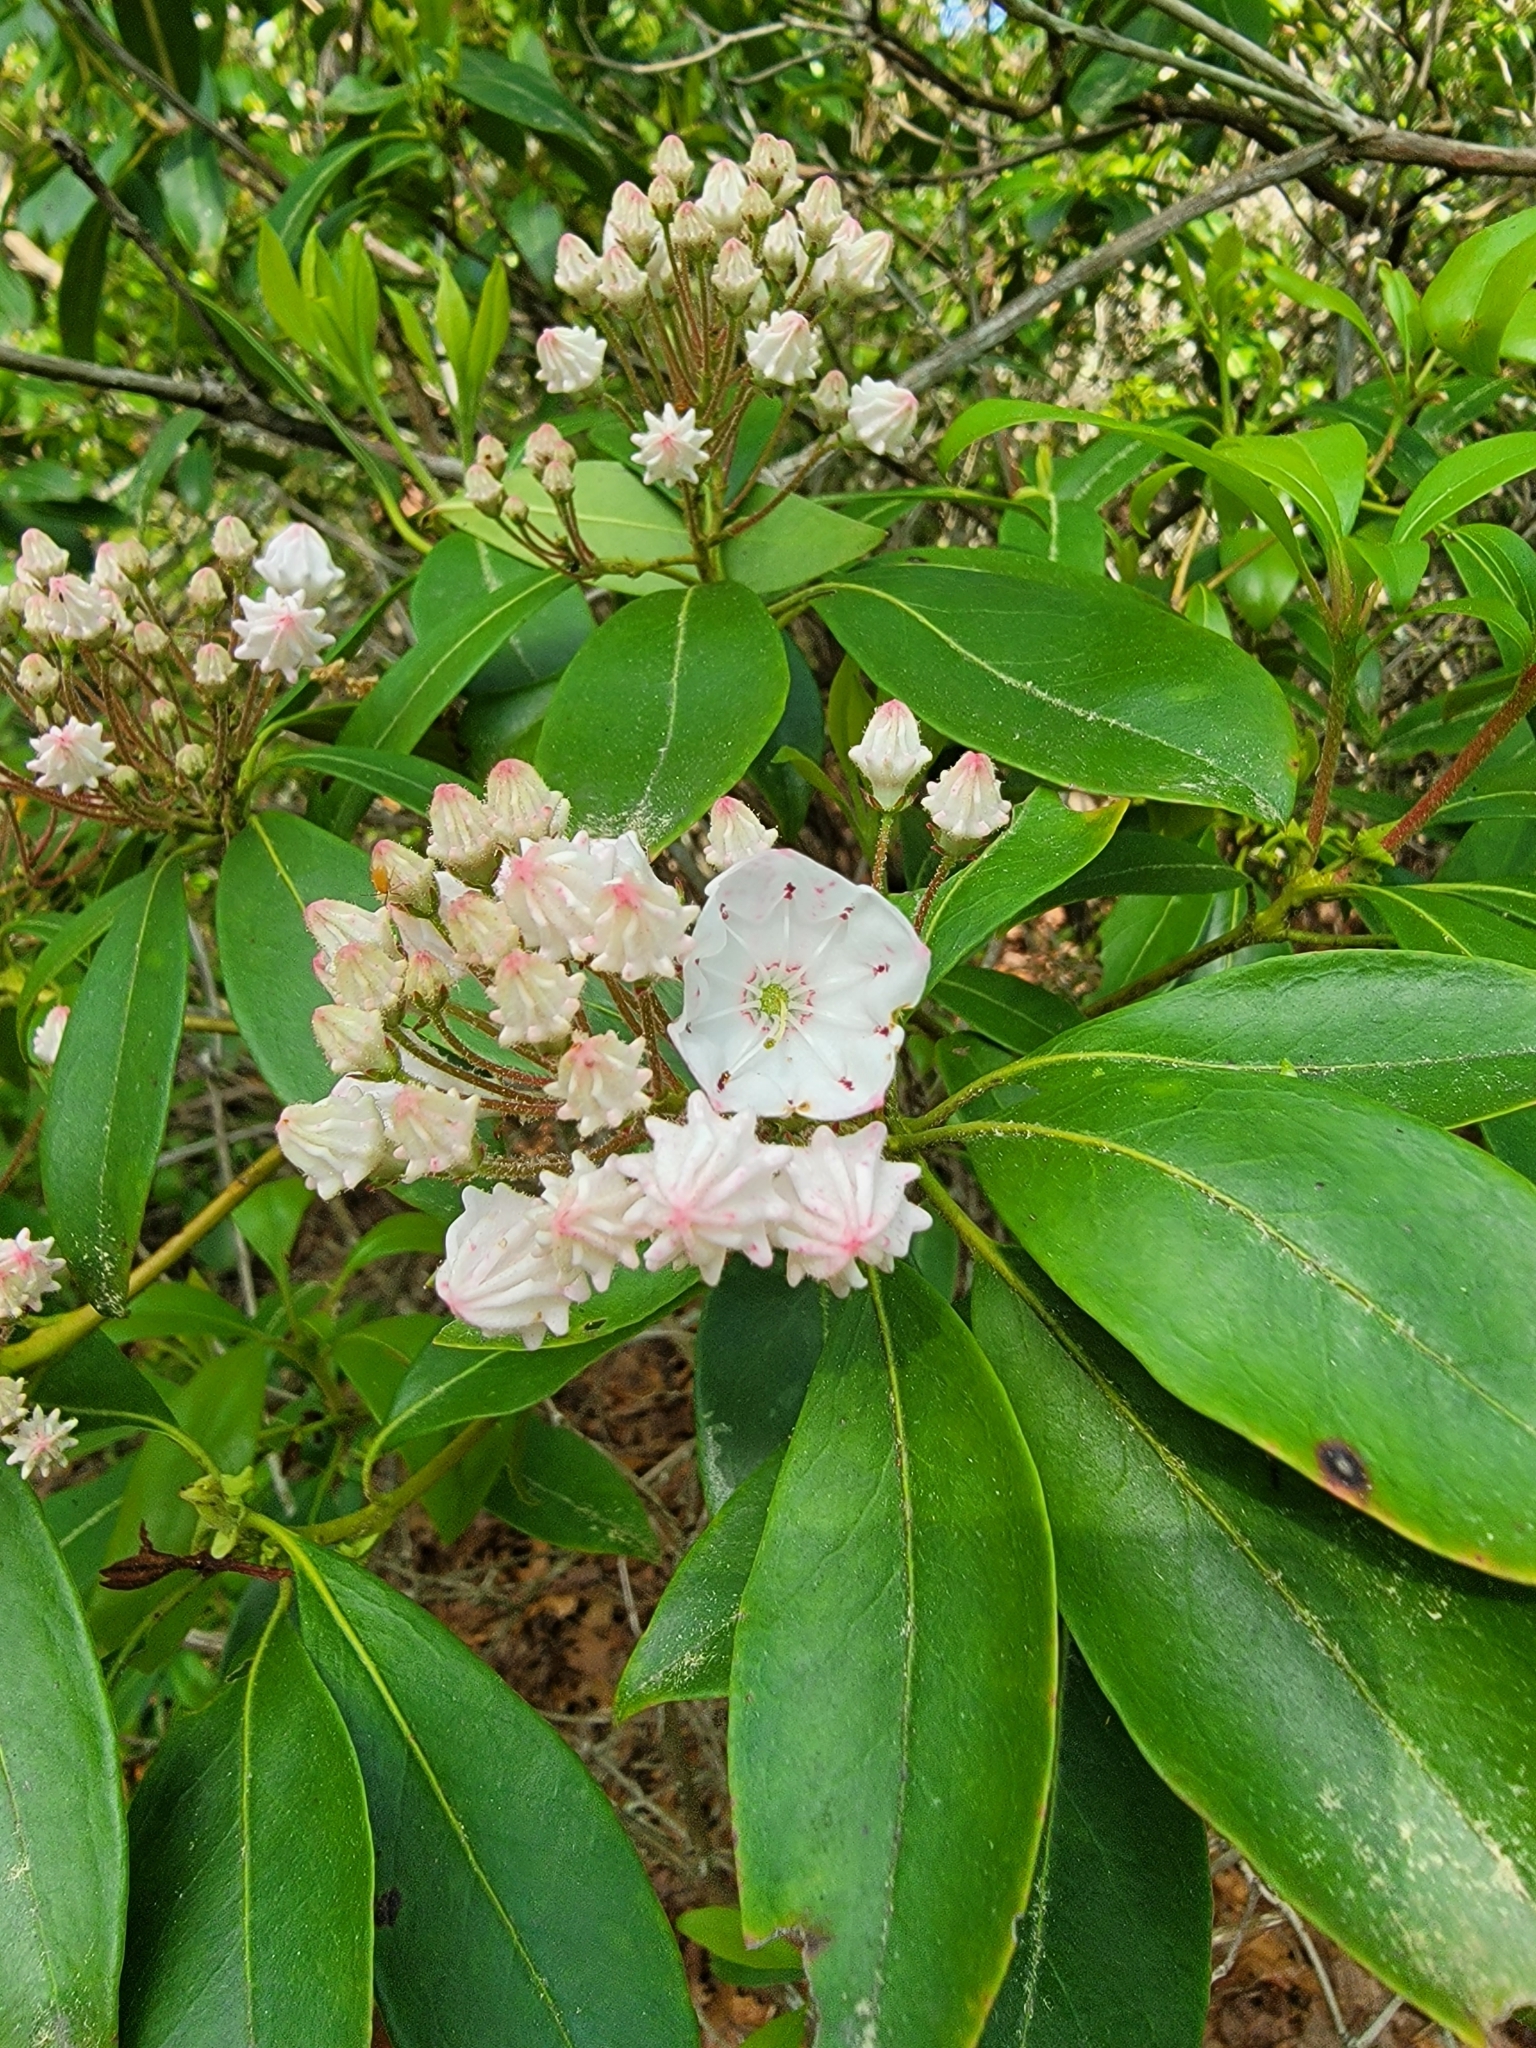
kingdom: Plantae
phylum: Tracheophyta
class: Magnoliopsida
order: Ericales
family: Ericaceae
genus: Kalmia
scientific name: Kalmia latifolia
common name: Mountain-laurel
